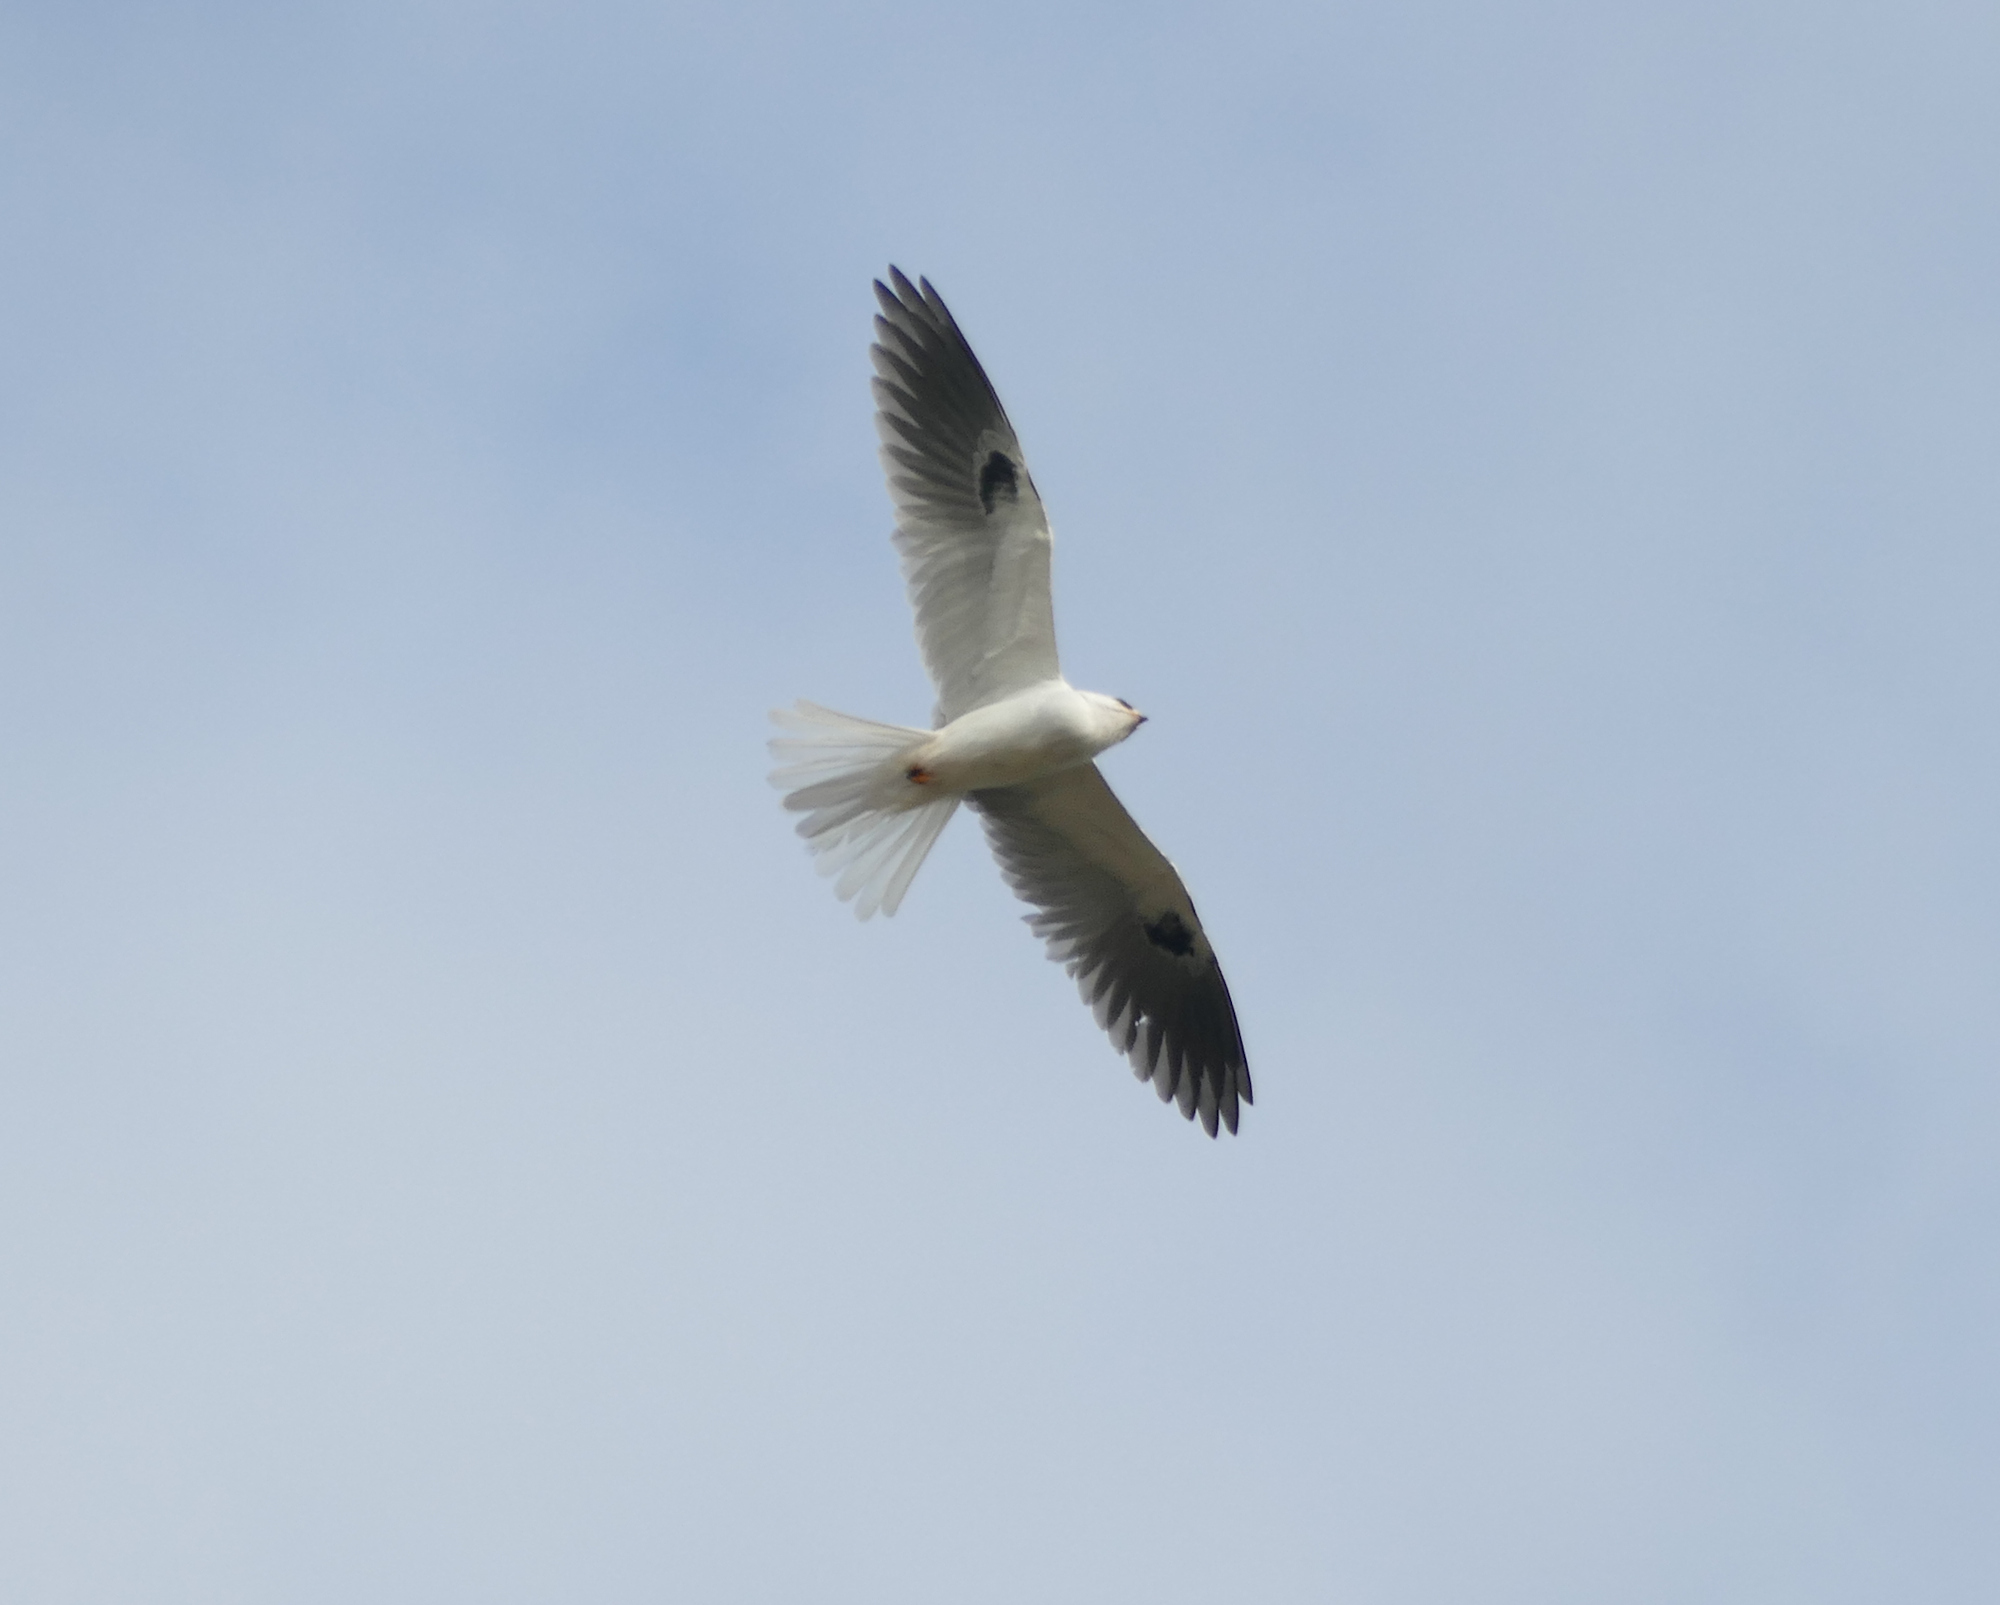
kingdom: Animalia
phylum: Chordata
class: Aves
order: Accipitriformes
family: Accipitridae
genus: Elanus
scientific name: Elanus leucurus
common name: White-tailed kite
